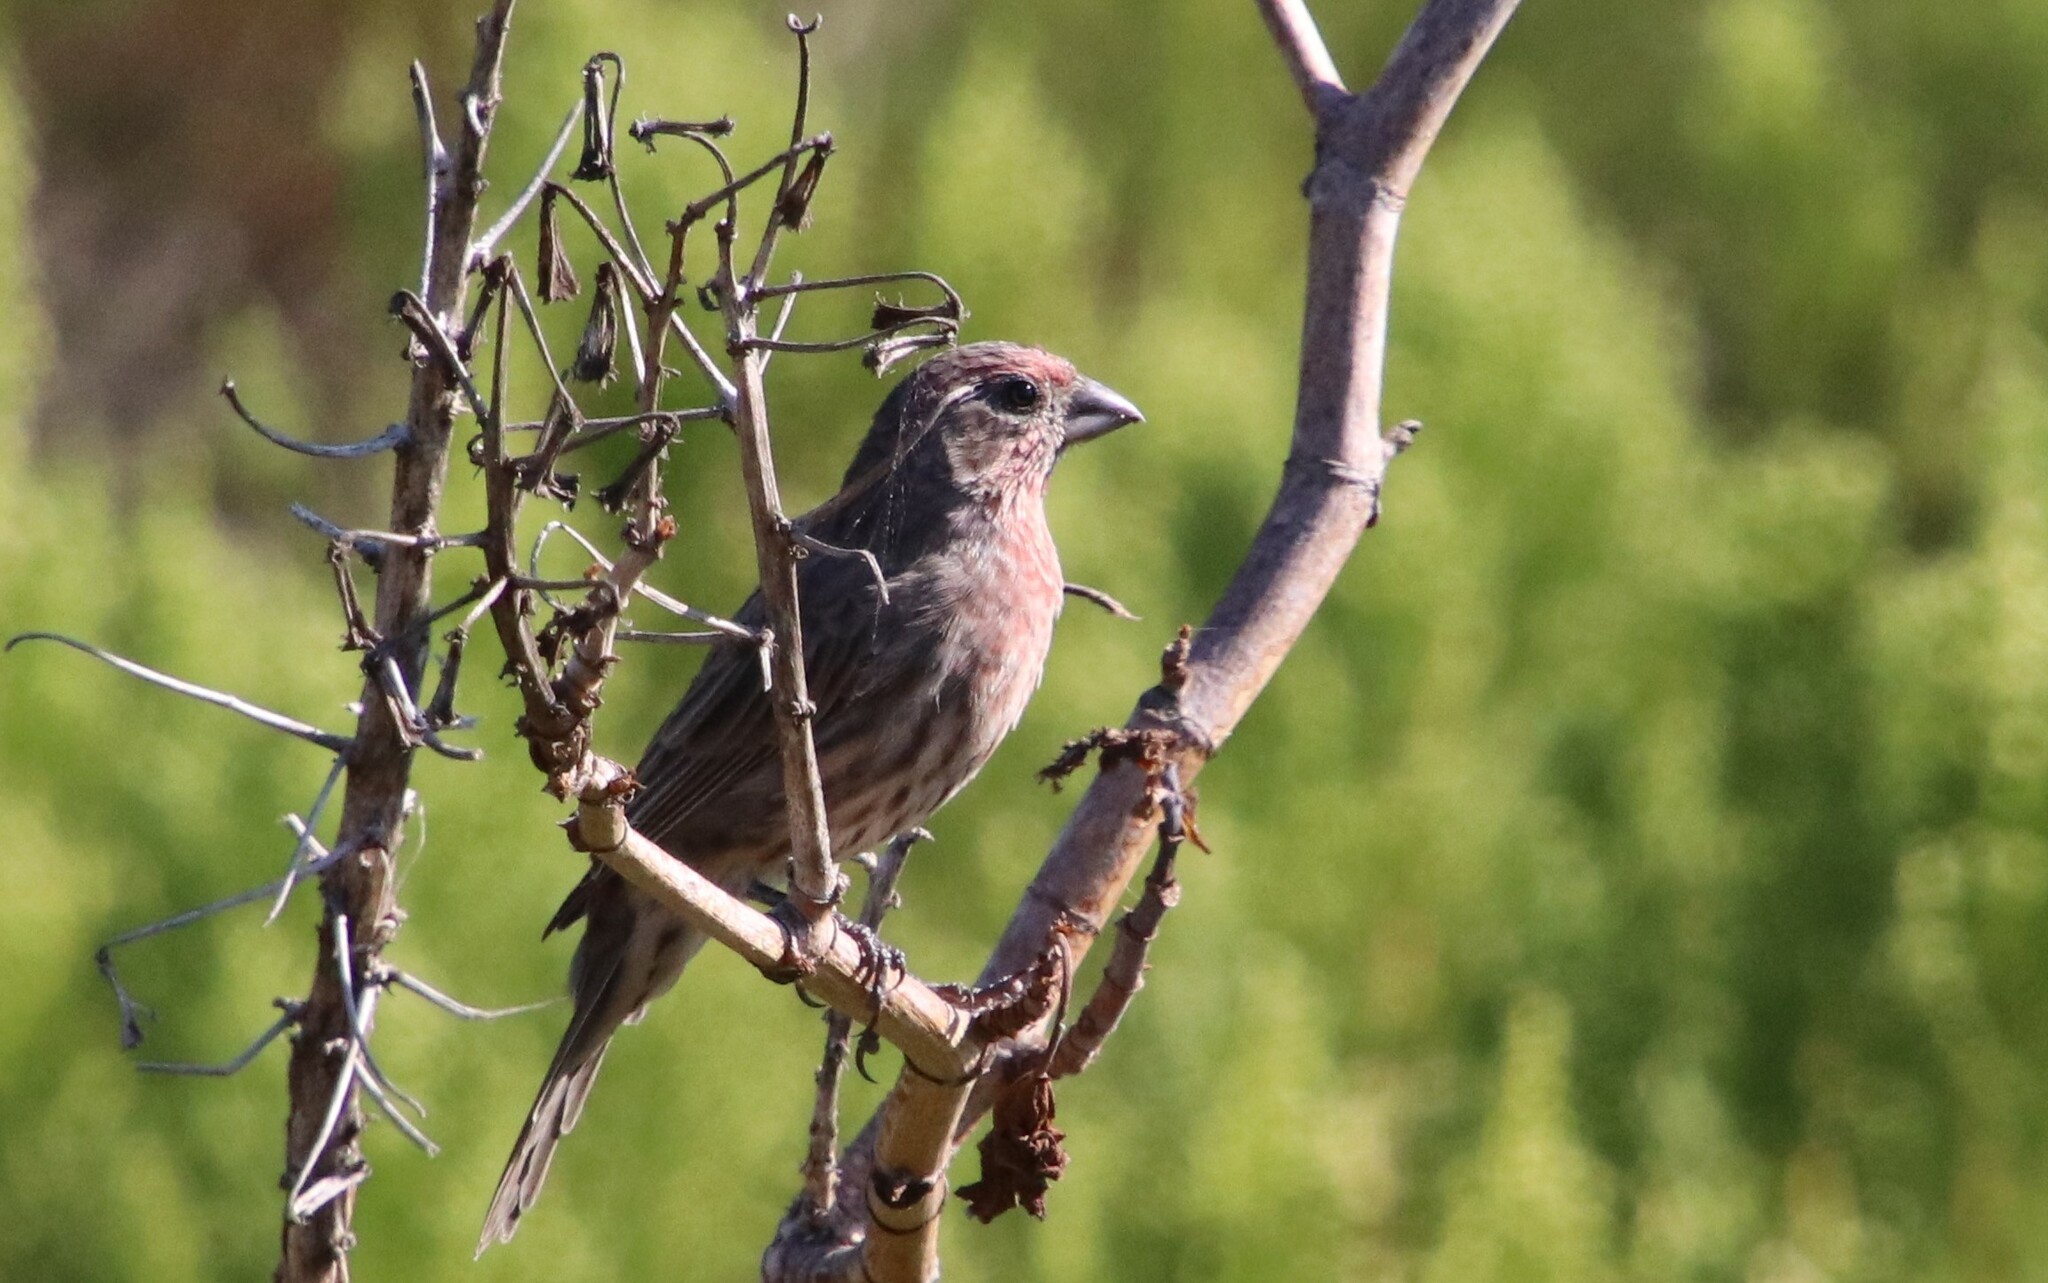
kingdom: Animalia
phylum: Chordata
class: Aves
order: Passeriformes
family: Fringillidae
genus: Haemorhous
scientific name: Haemorhous mexicanus
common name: House finch
